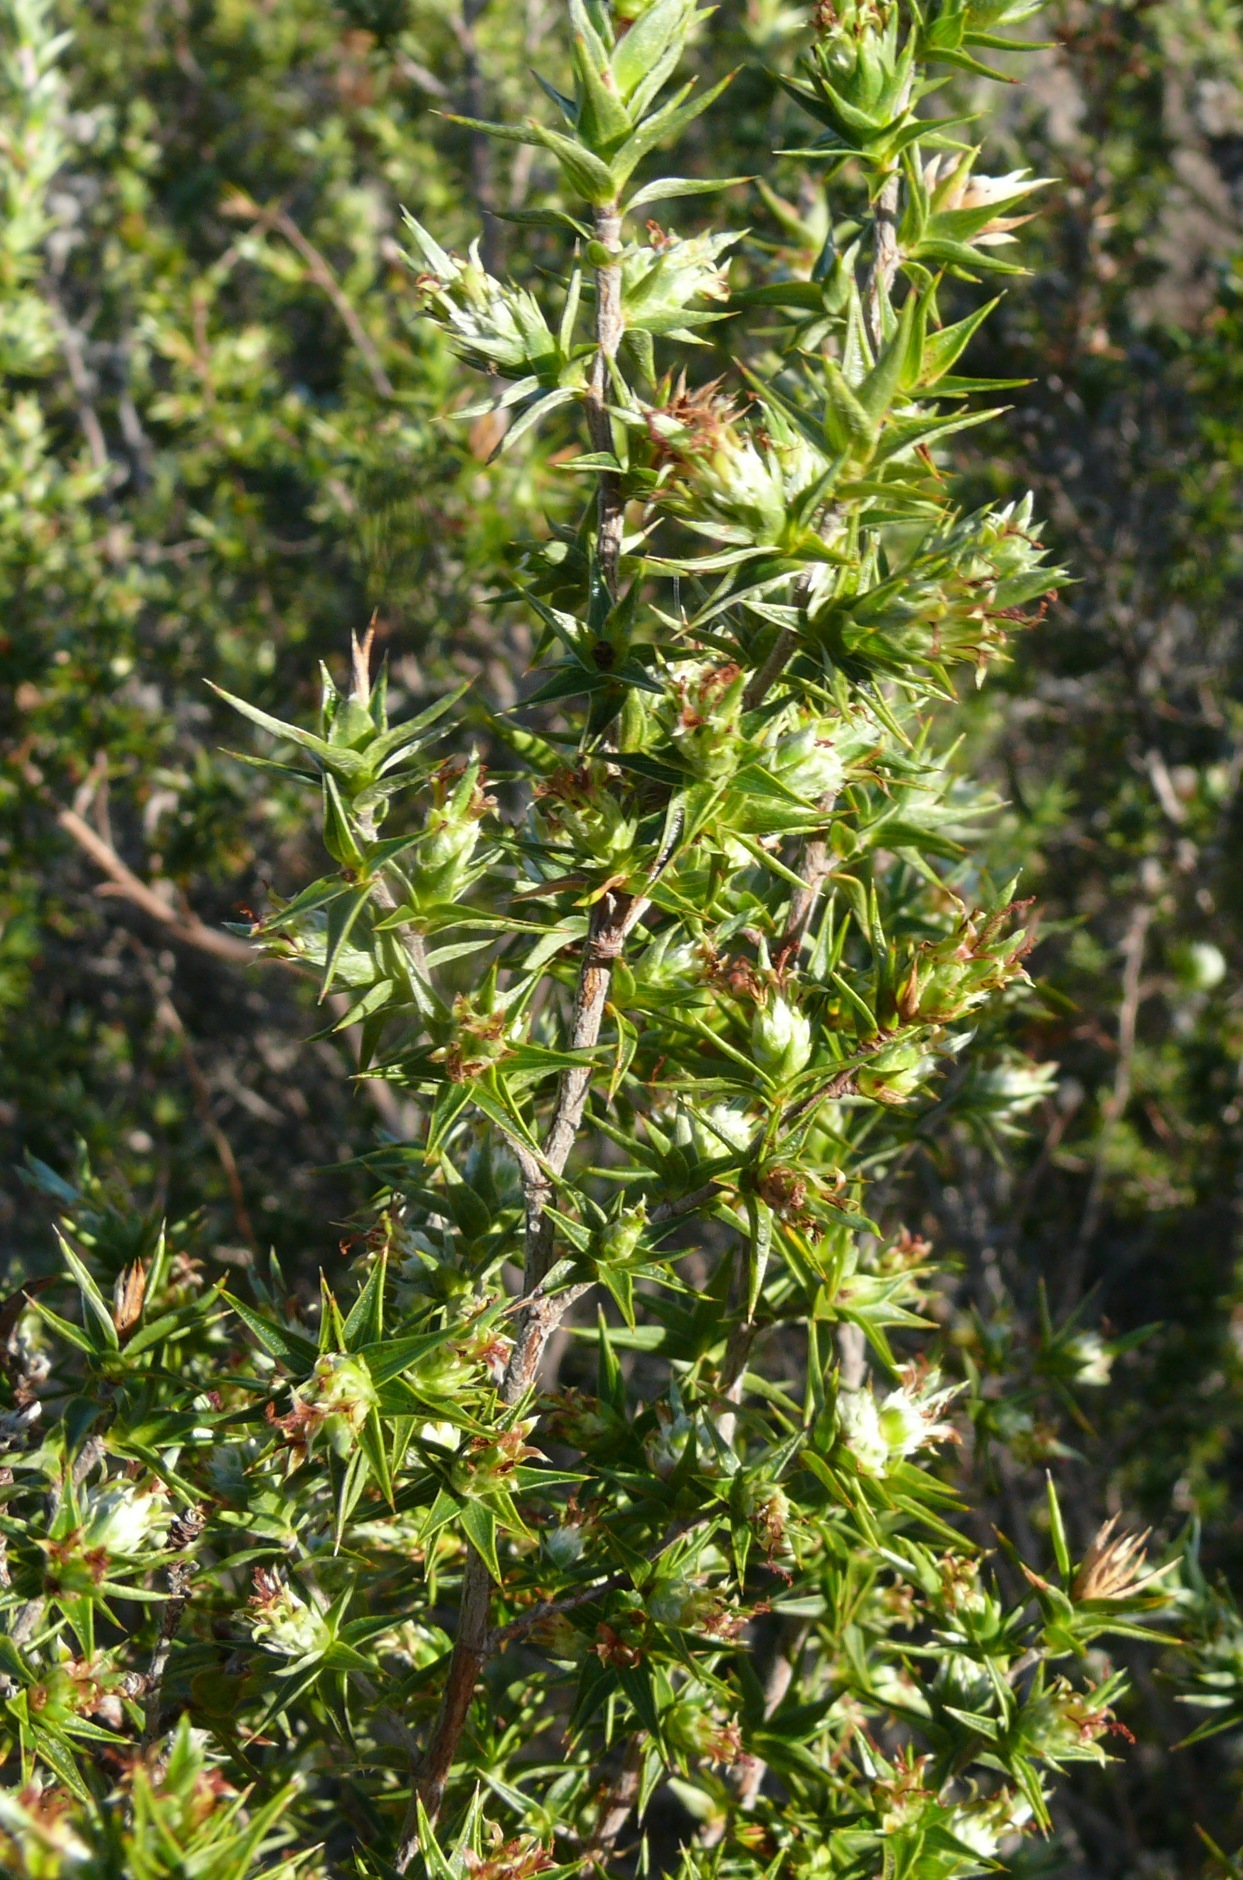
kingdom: Plantae
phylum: Tracheophyta
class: Magnoliopsida
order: Rosales
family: Rosaceae
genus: Cliffortia
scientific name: Cliffortia ruscifolia
